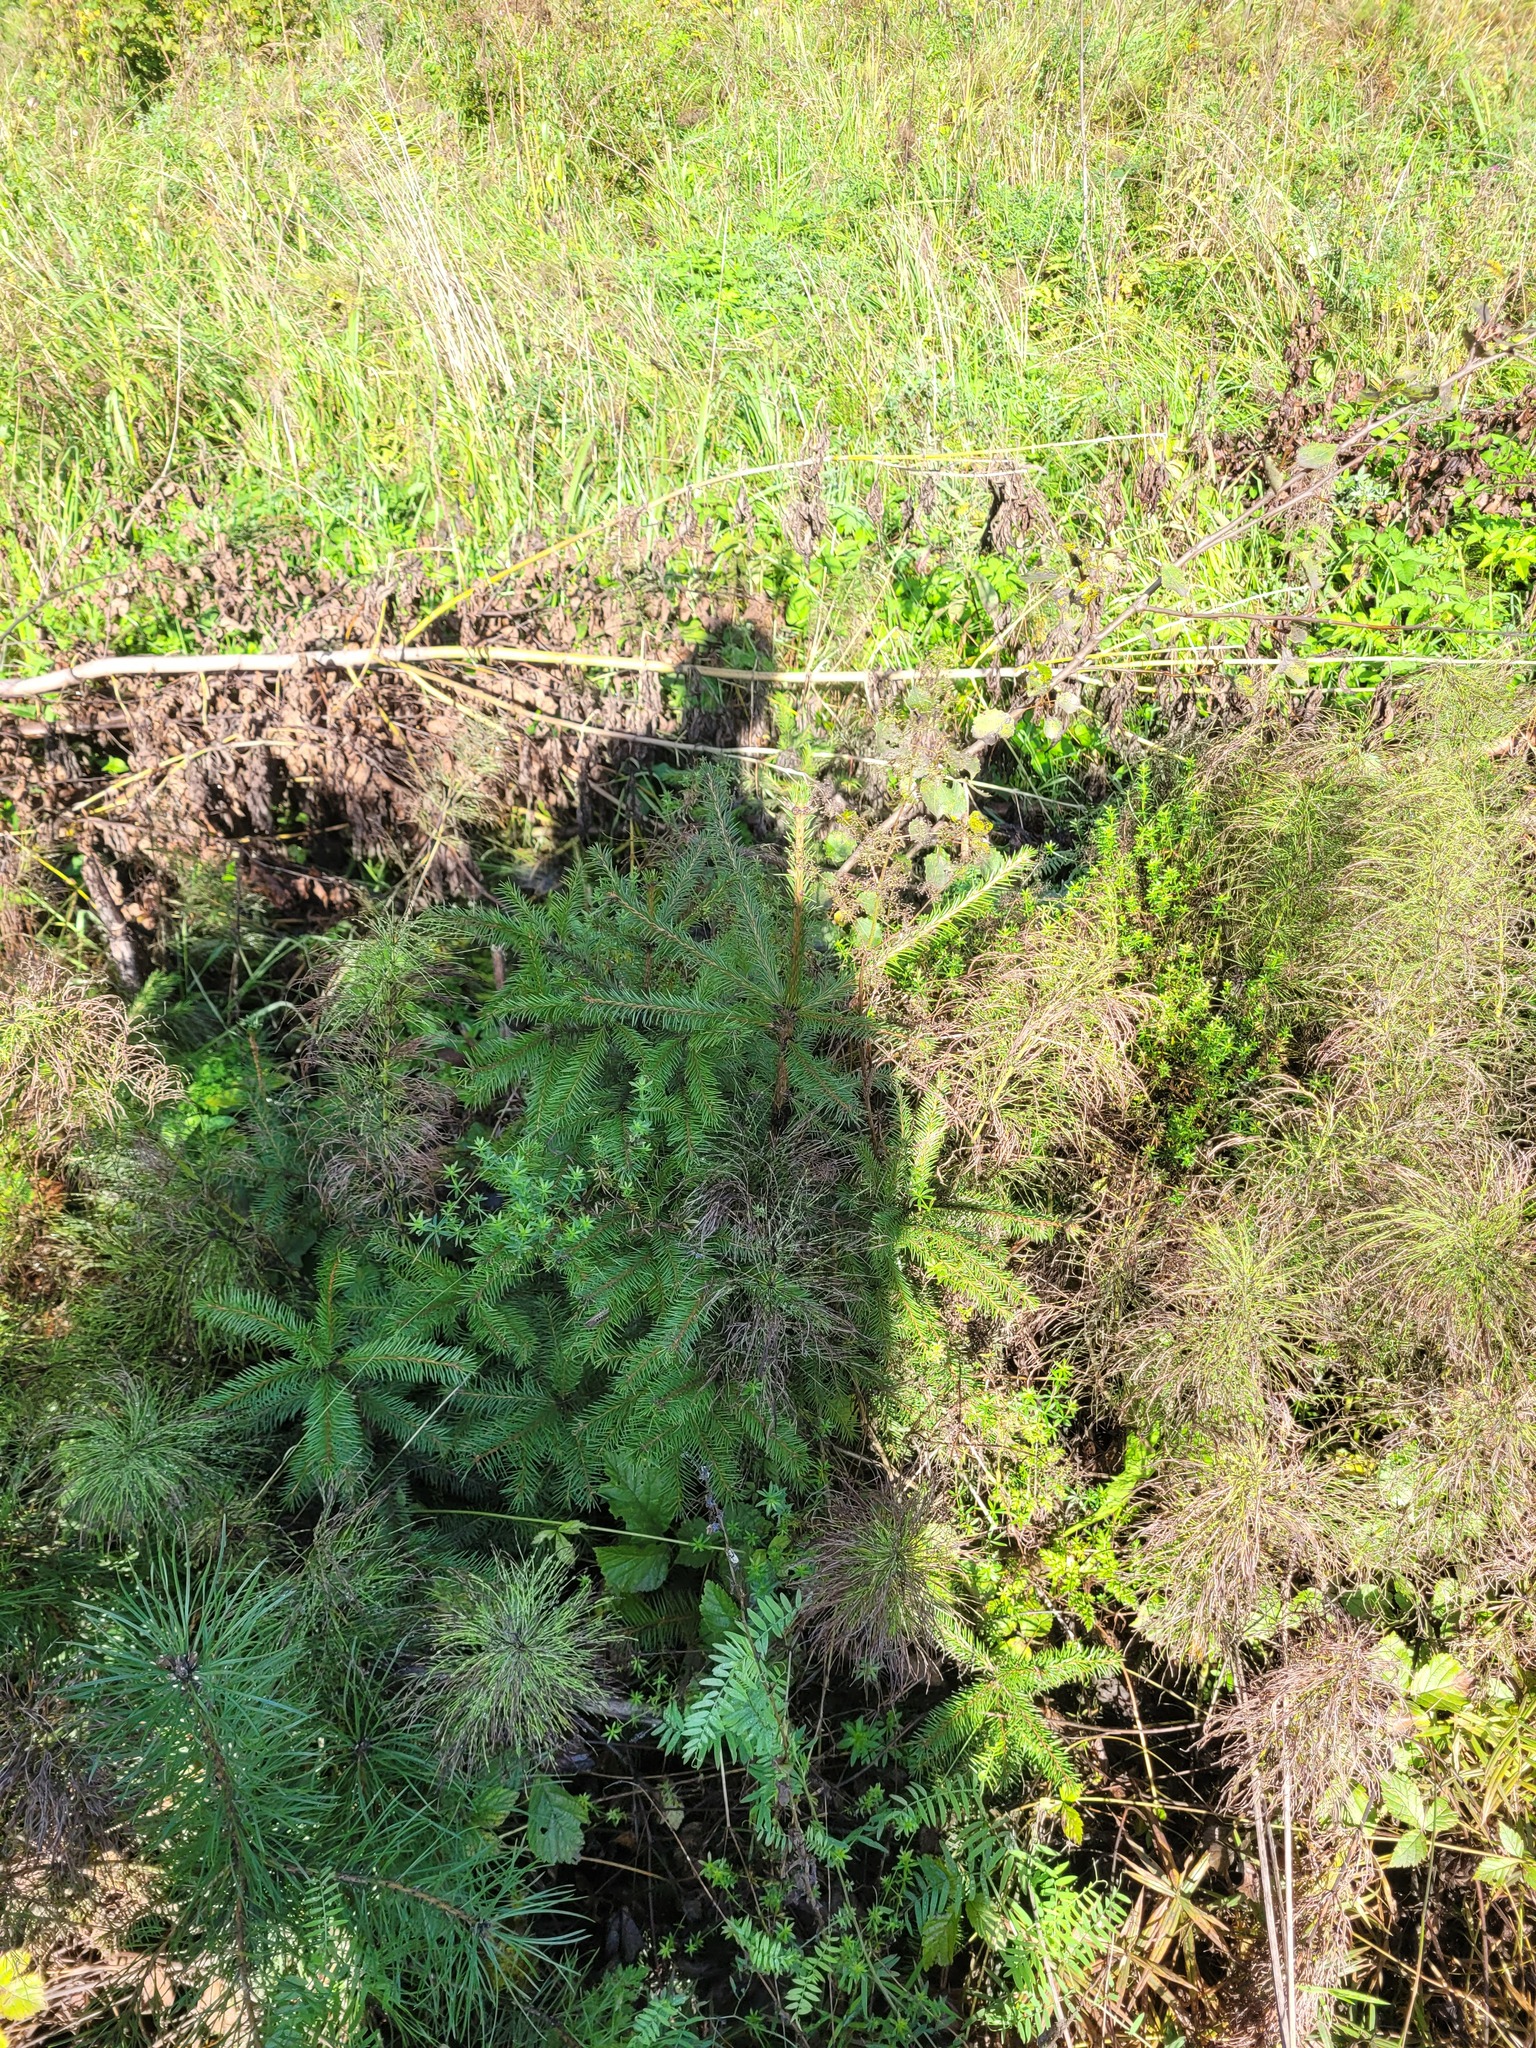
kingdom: Plantae
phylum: Tracheophyta
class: Pinopsida
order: Pinales
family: Pinaceae
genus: Picea
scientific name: Picea abies
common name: Norway spruce
